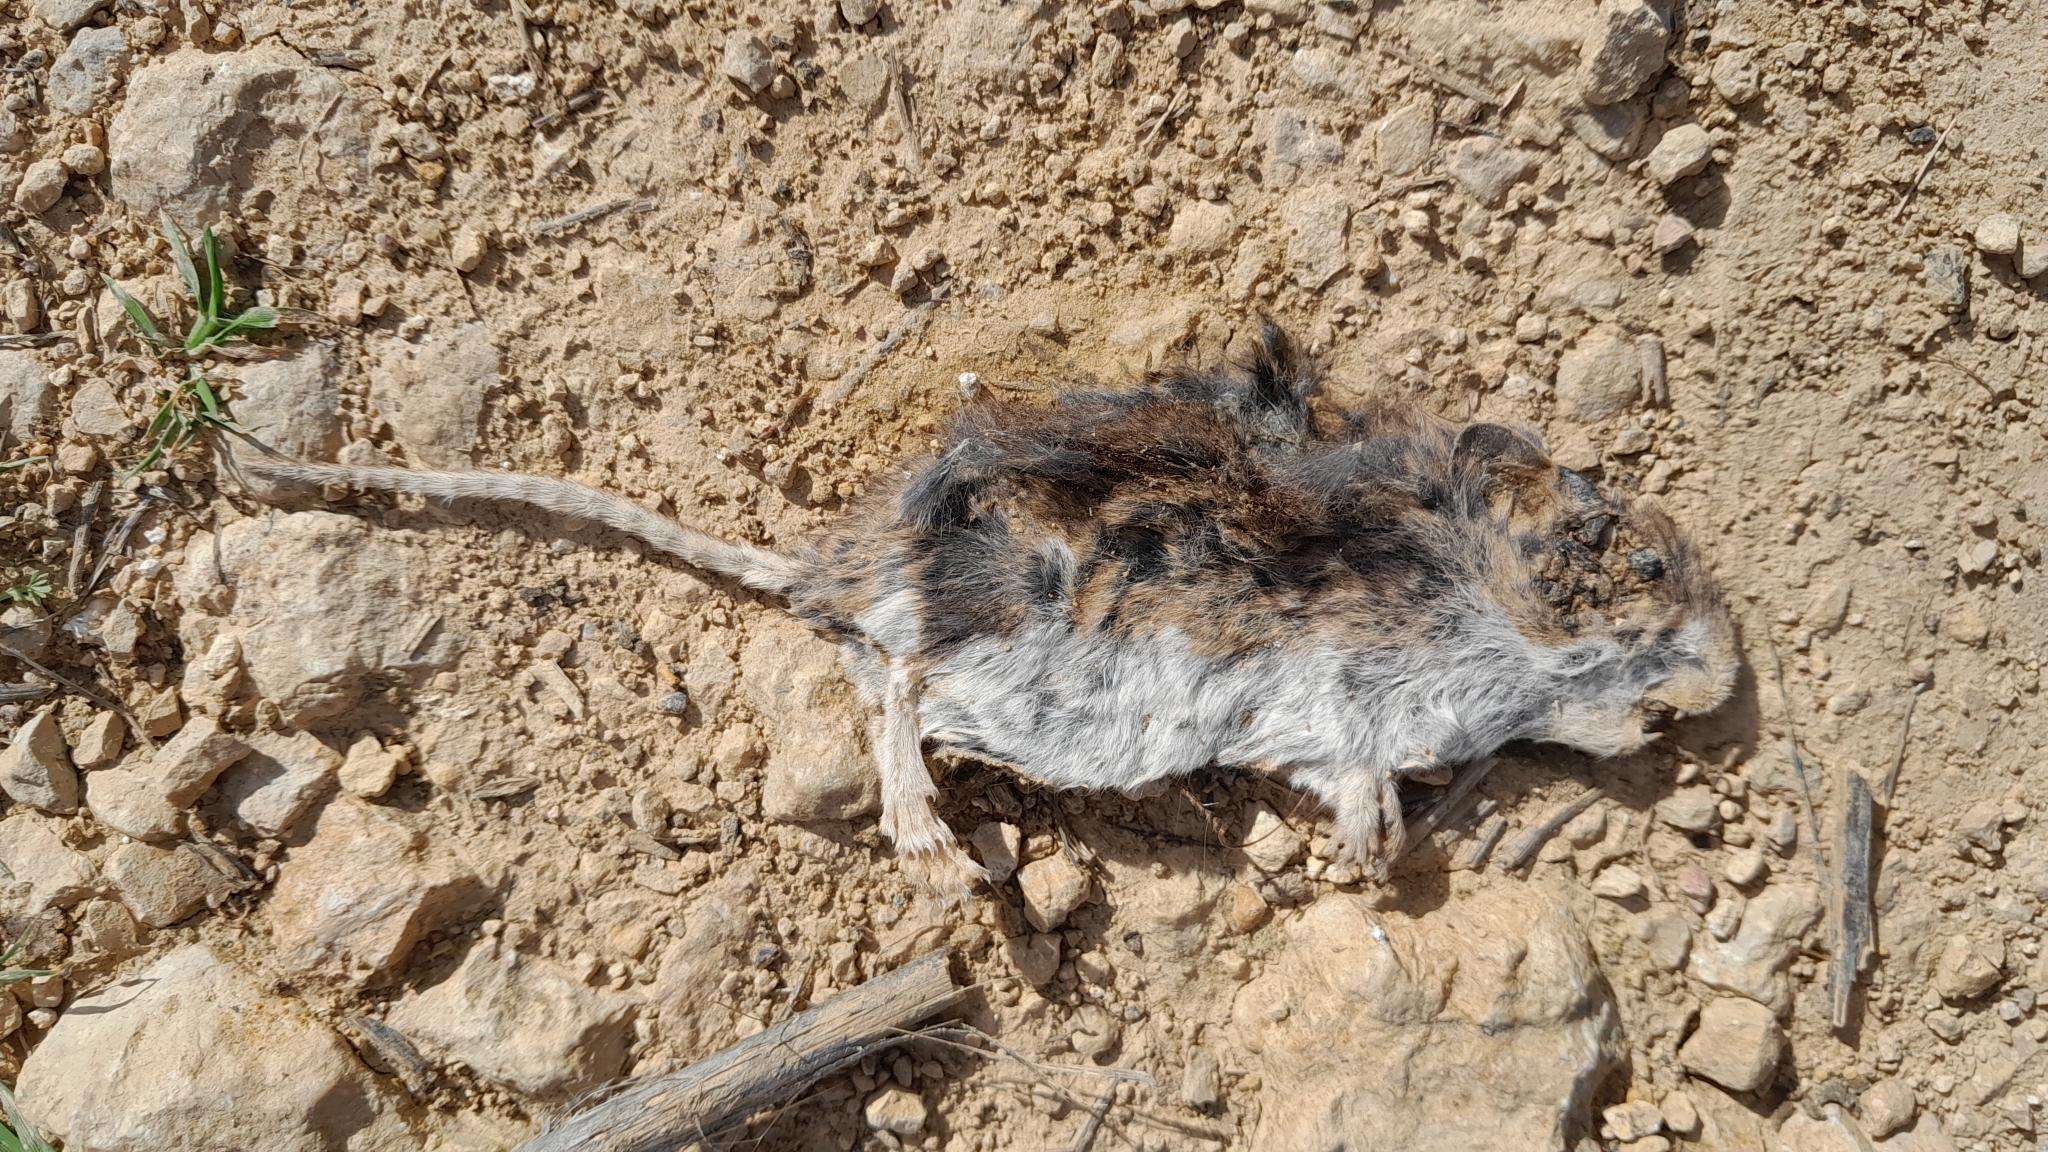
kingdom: Animalia
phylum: Chordata
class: Mammalia
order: Rodentia
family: Cricetidae
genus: Peromyscus
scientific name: Peromyscus maniculatus
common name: Deer mouse
